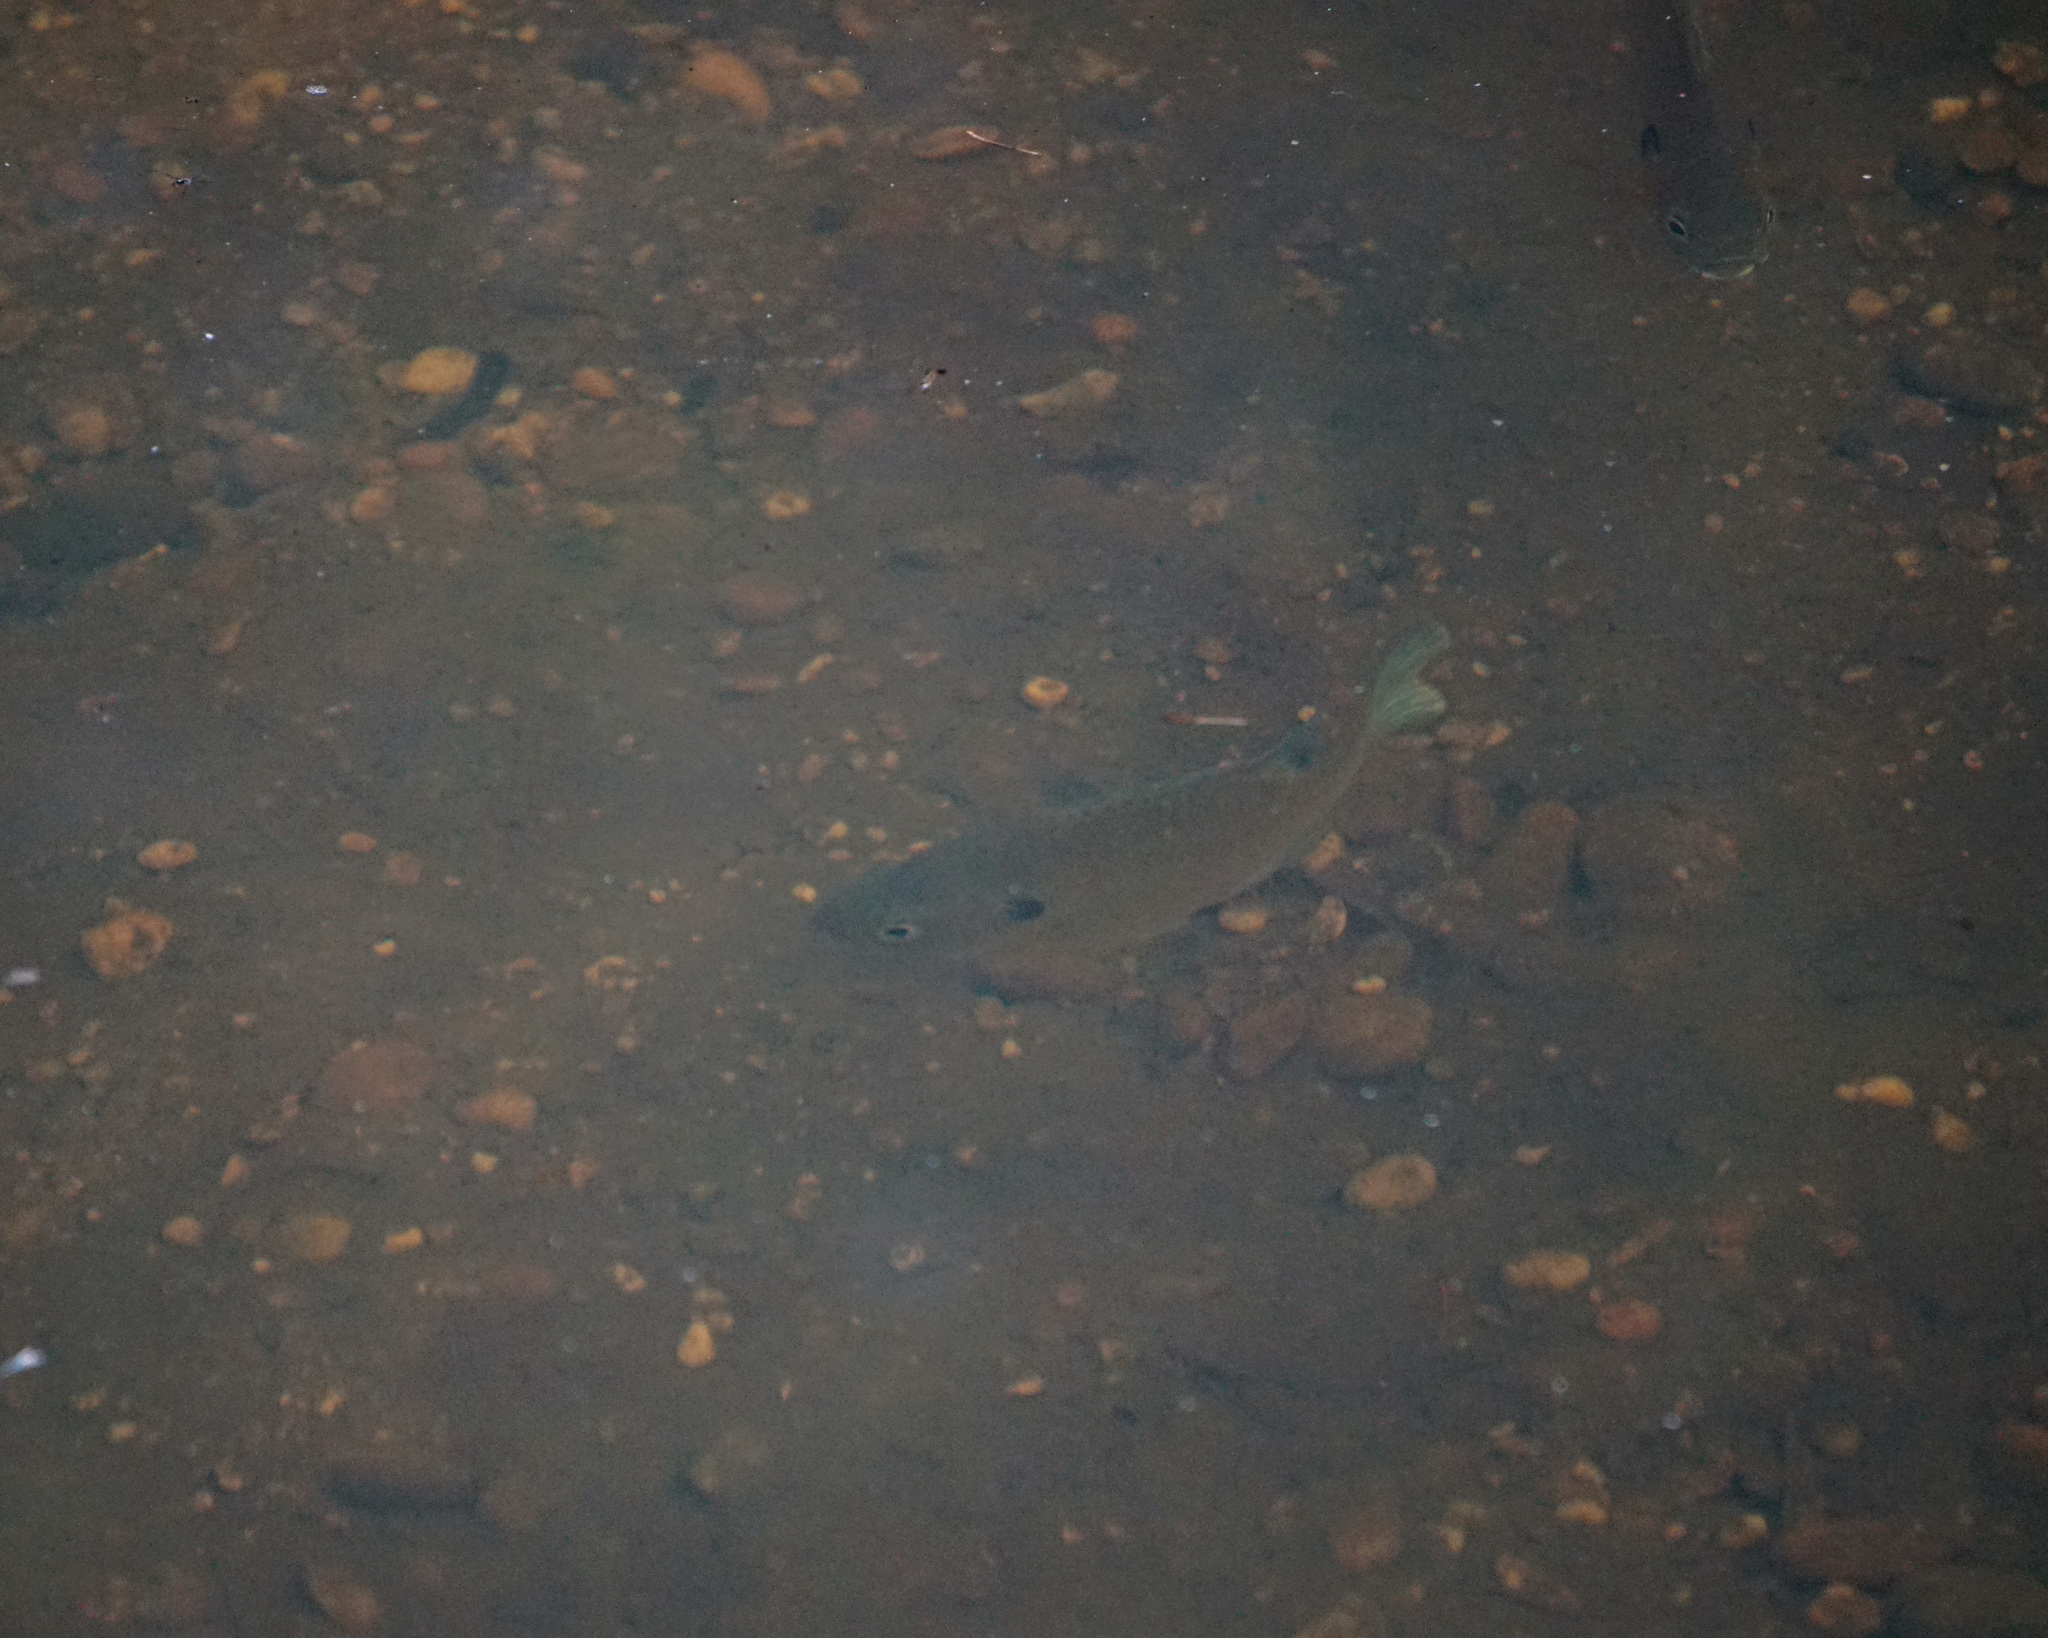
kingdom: Animalia
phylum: Chordata
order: Perciformes
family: Centrarchidae
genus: Lepomis
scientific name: Lepomis macrochirus
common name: Bluegill
